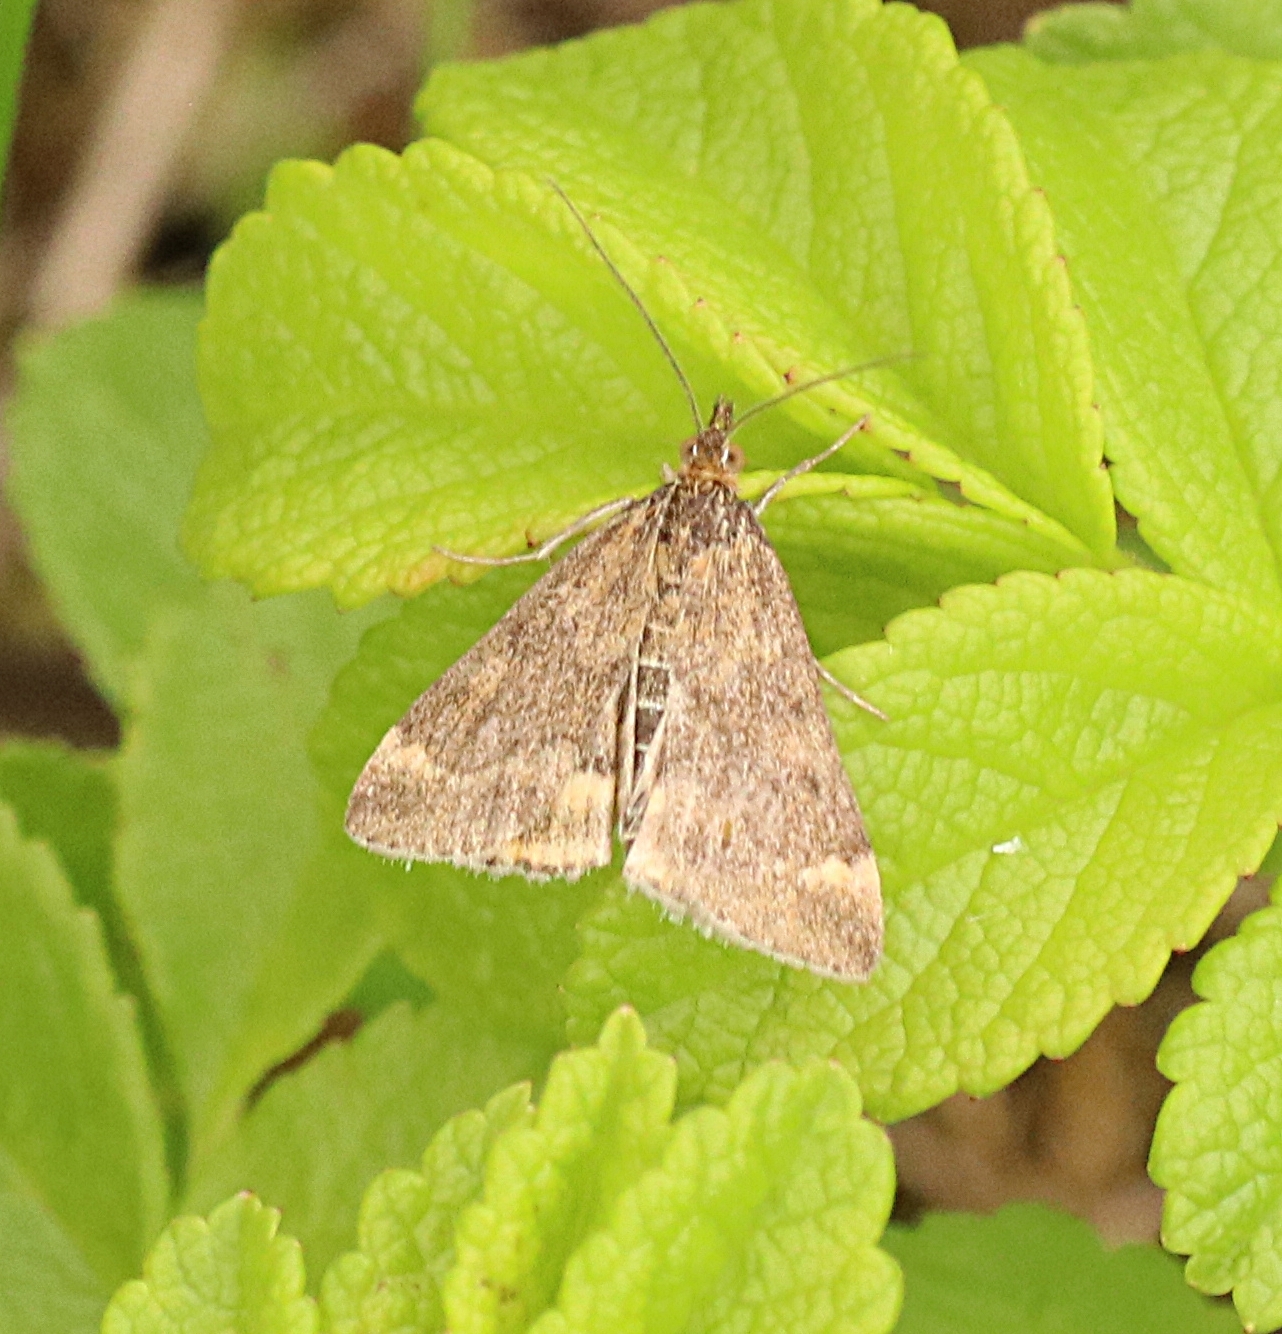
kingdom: Animalia
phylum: Arthropoda
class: Insecta
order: Lepidoptera
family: Crambidae
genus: Pyrausta
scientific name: Pyrausta despicata
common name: Straw-barred pearl
